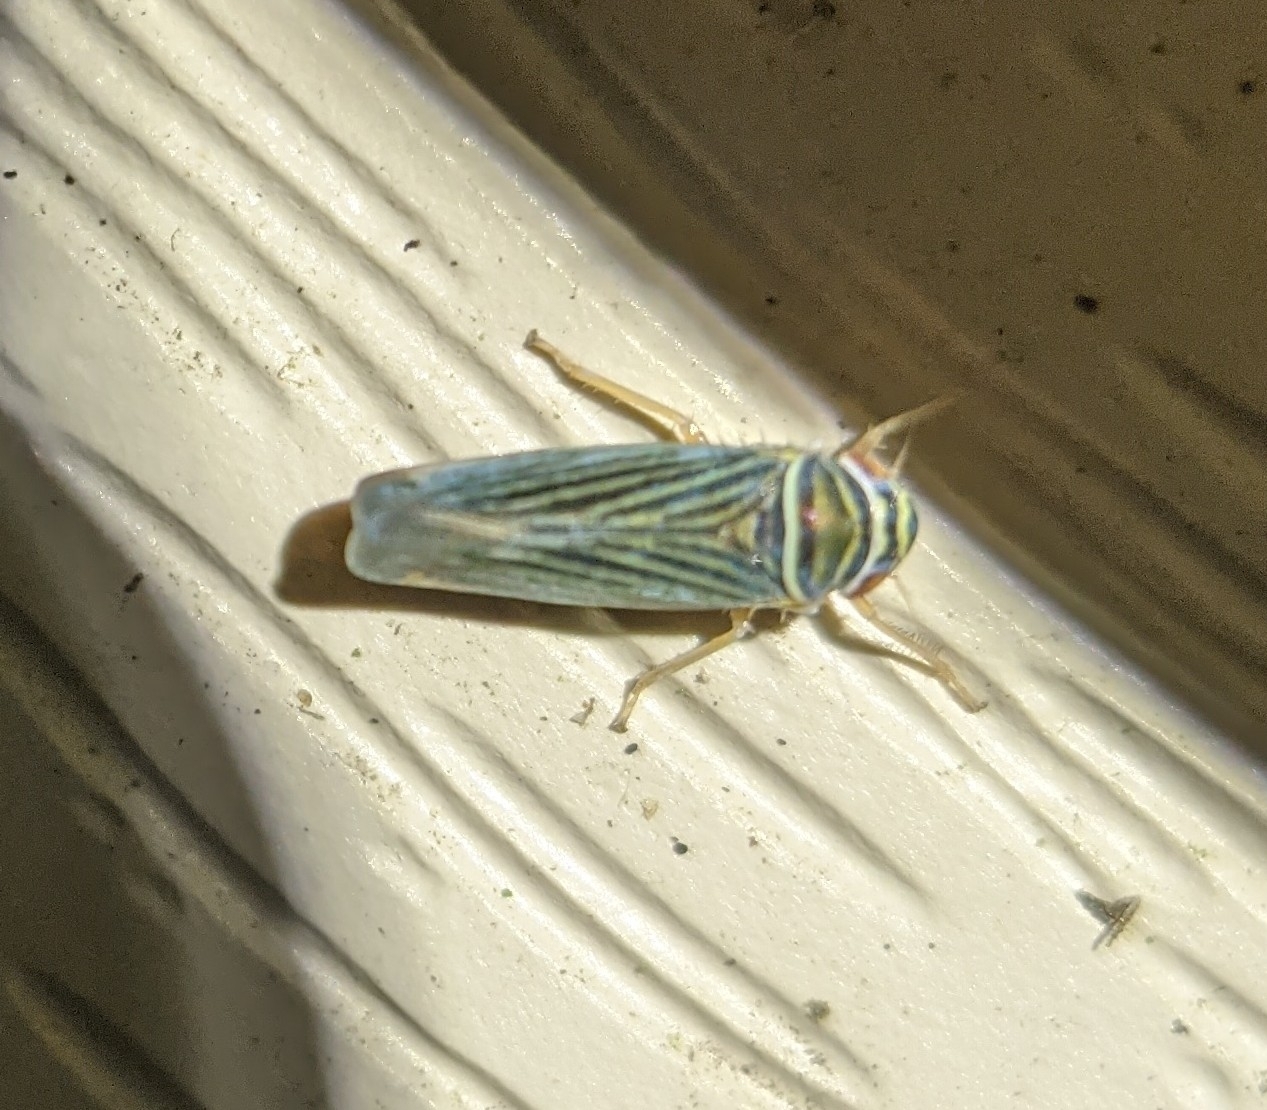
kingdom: Animalia
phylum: Arthropoda
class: Insecta
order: Hemiptera
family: Cicadellidae
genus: Tylozygus
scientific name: Tylozygus bifidus
